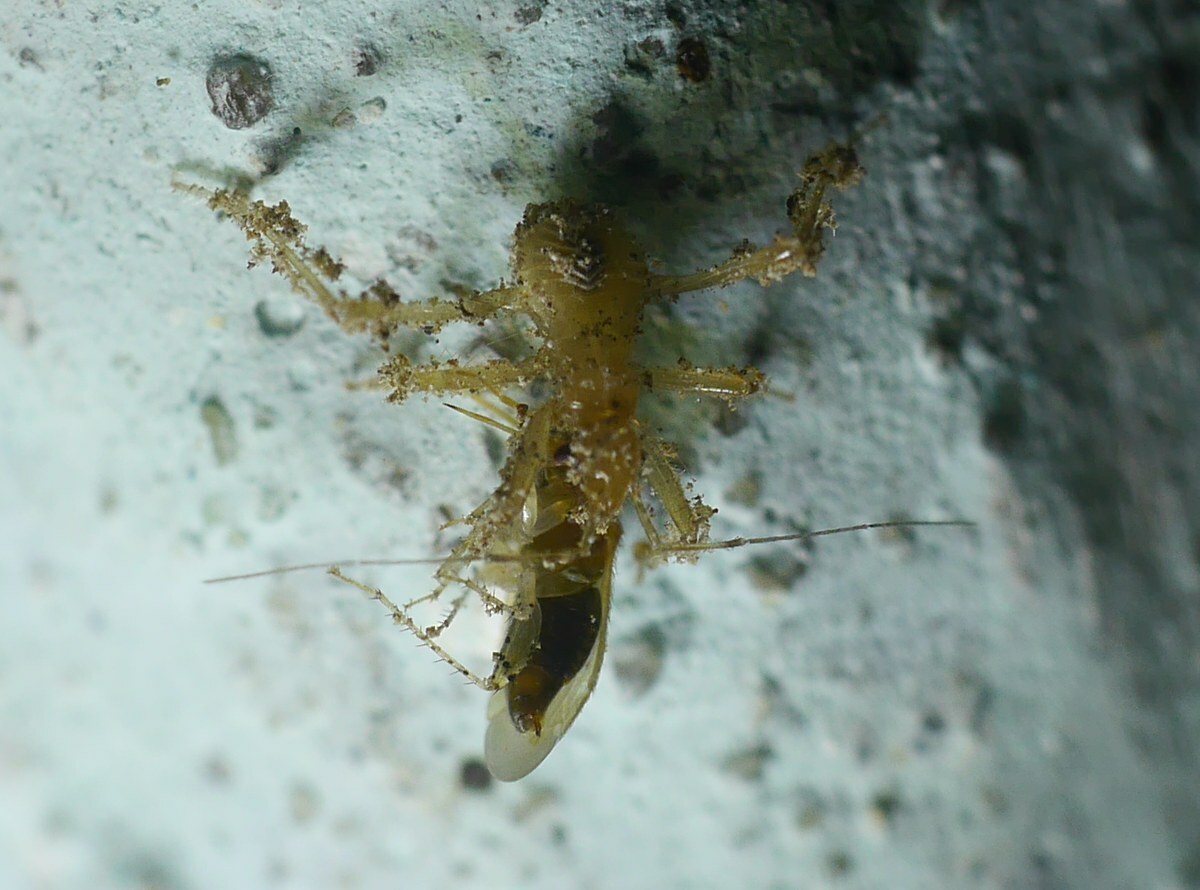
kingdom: Animalia
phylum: Arthropoda
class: Insecta
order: Hemiptera
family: Reduviidae
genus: Reduvius
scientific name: Reduvius personatus
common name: Masked hunter
